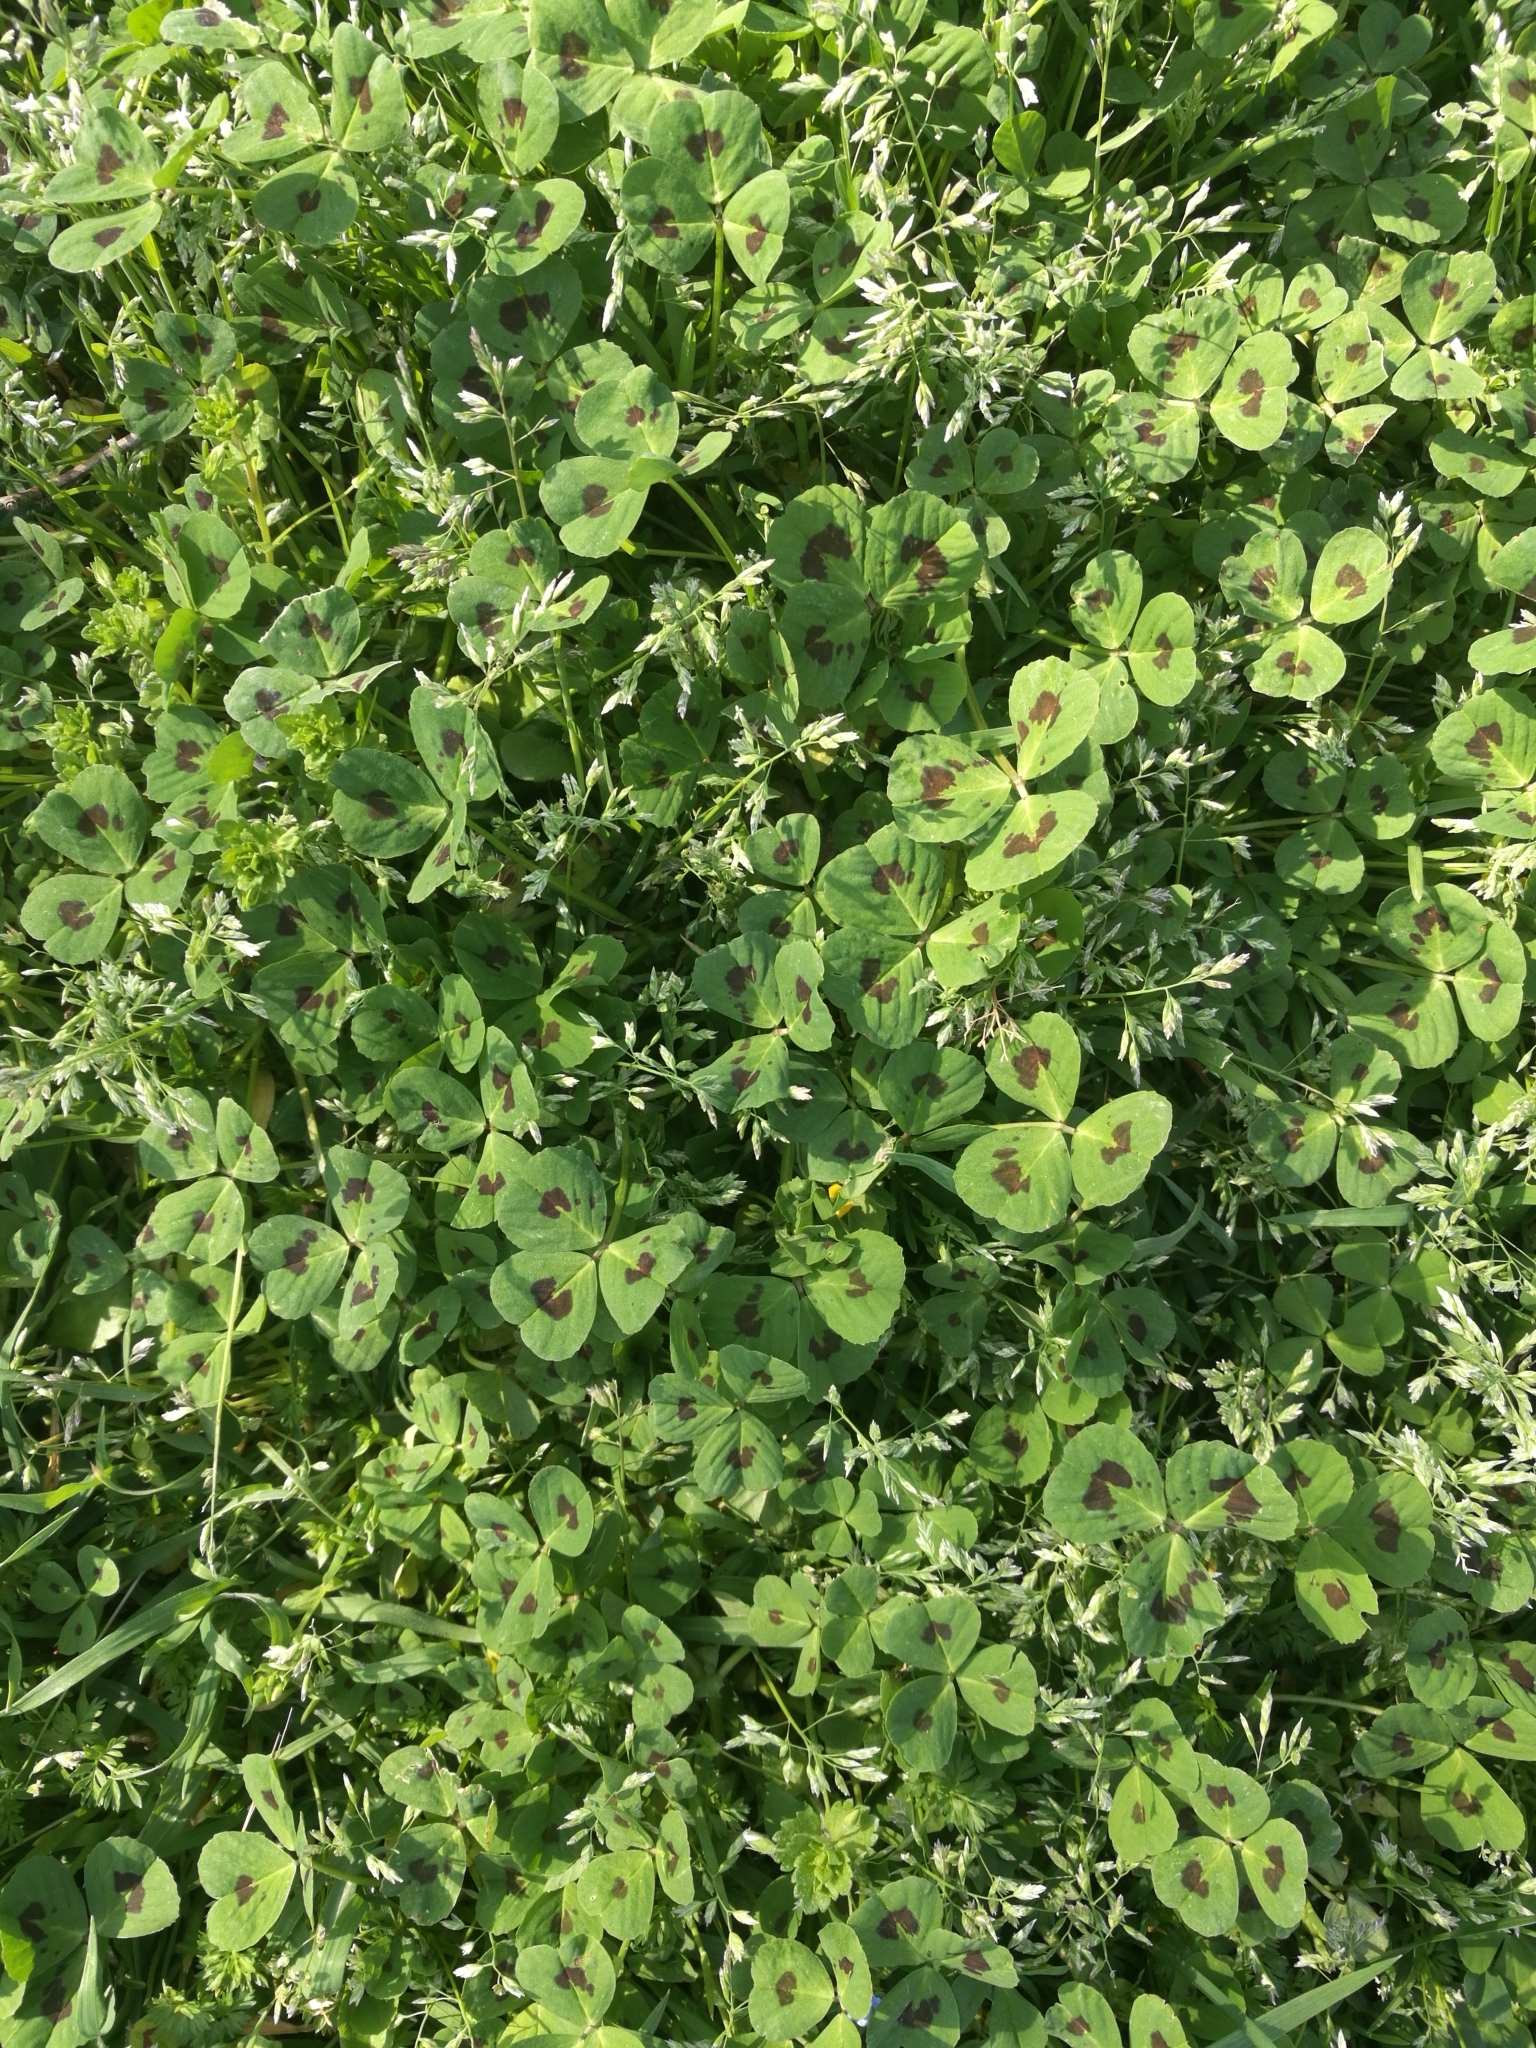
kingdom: Plantae
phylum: Tracheophyta
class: Magnoliopsida
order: Fabales
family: Fabaceae
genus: Medicago
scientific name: Medicago arabica
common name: Spotted medick
